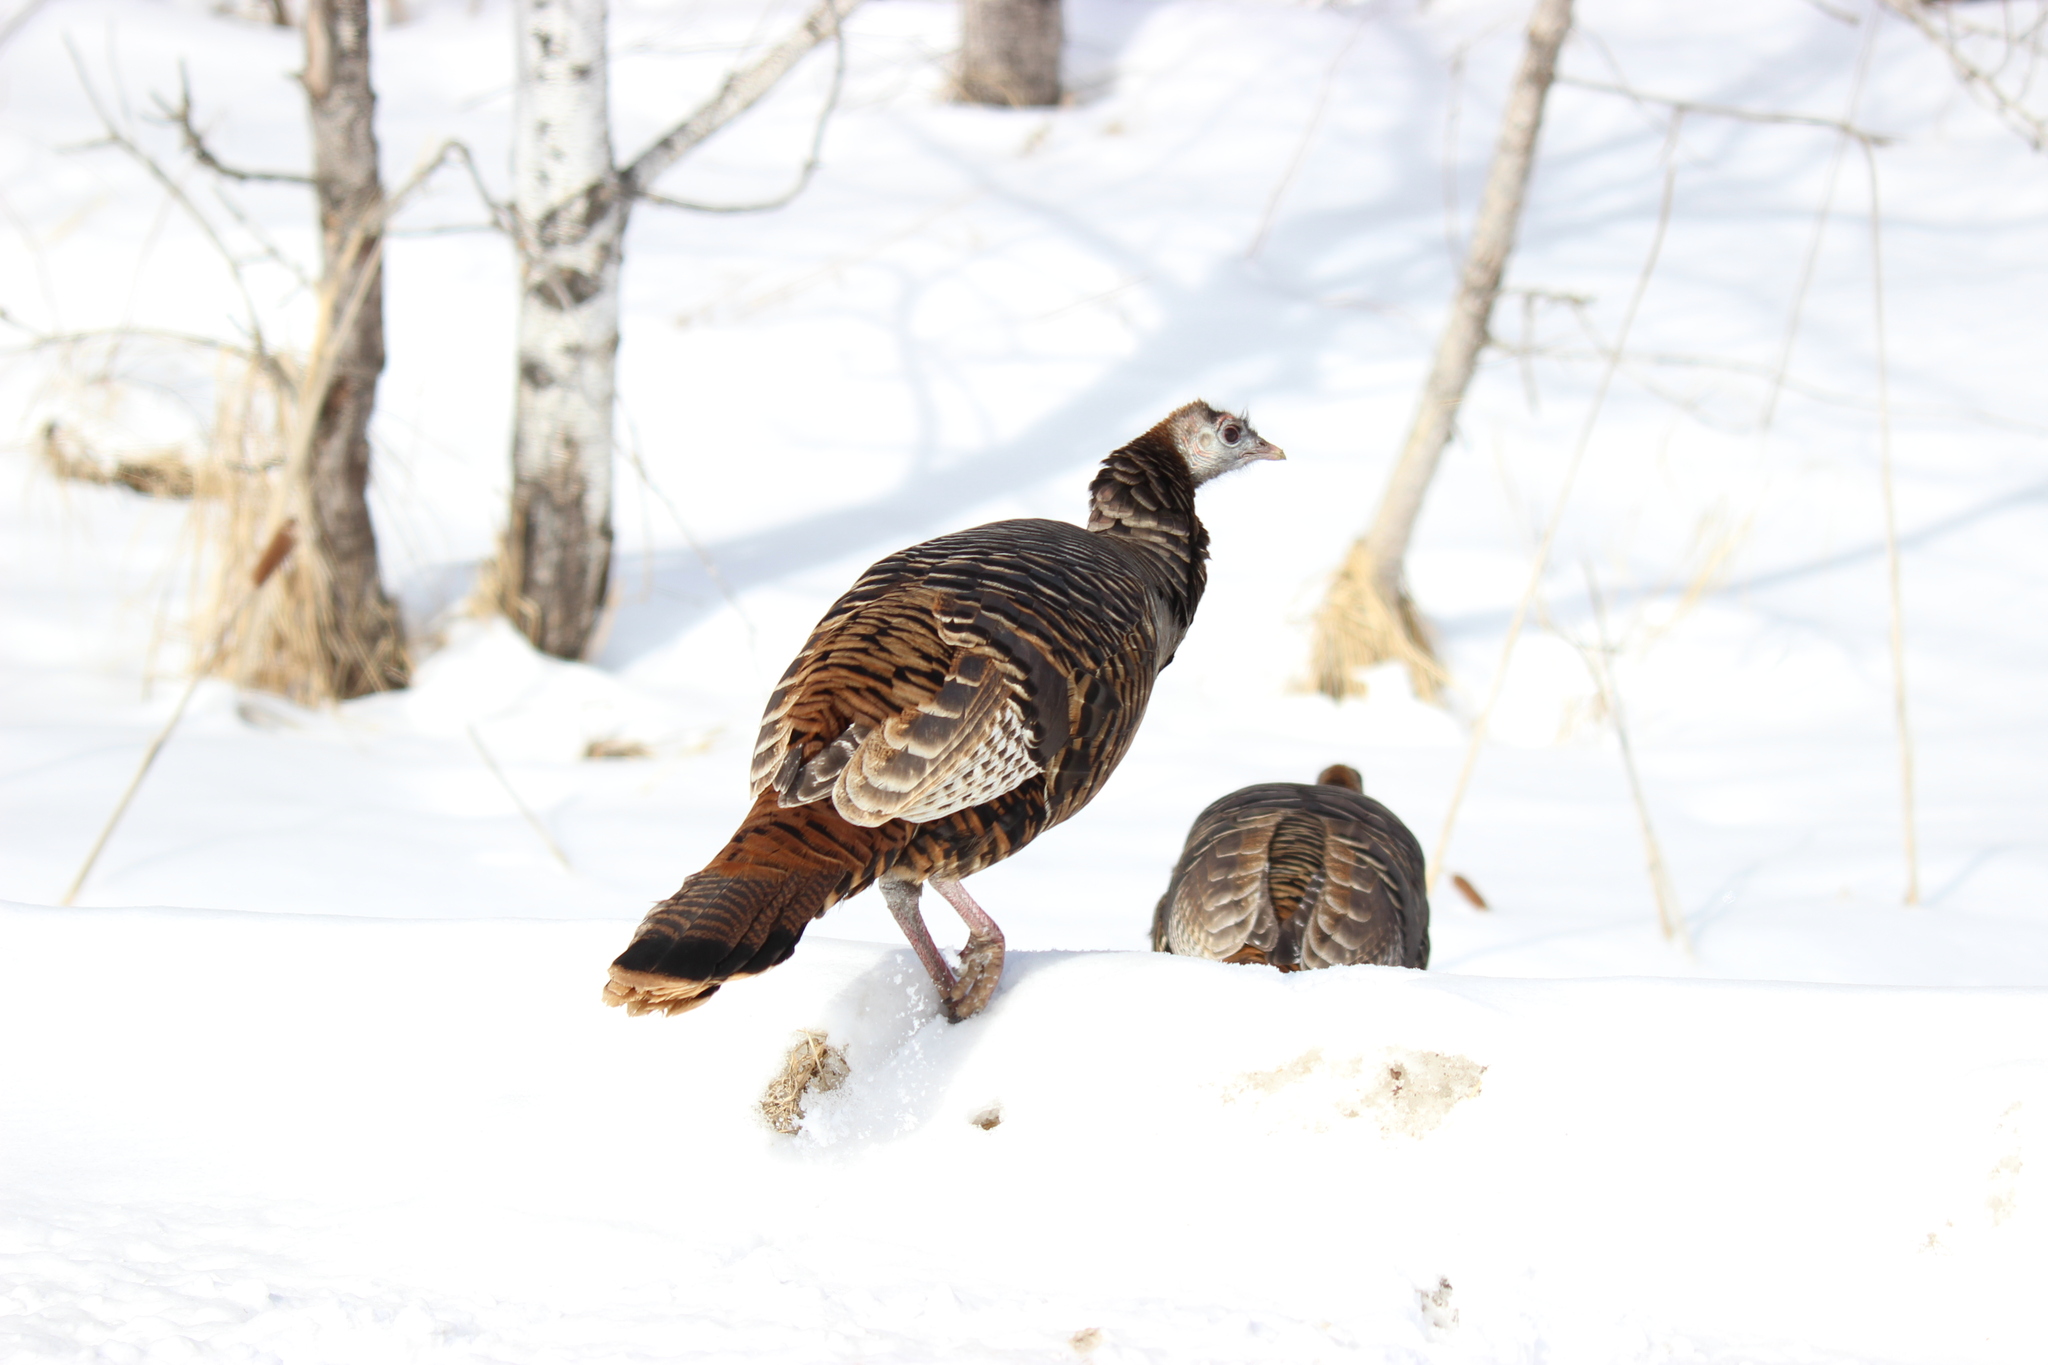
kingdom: Animalia
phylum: Chordata
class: Aves
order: Galliformes
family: Phasianidae
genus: Meleagris
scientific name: Meleagris gallopavo
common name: Wild turkey
